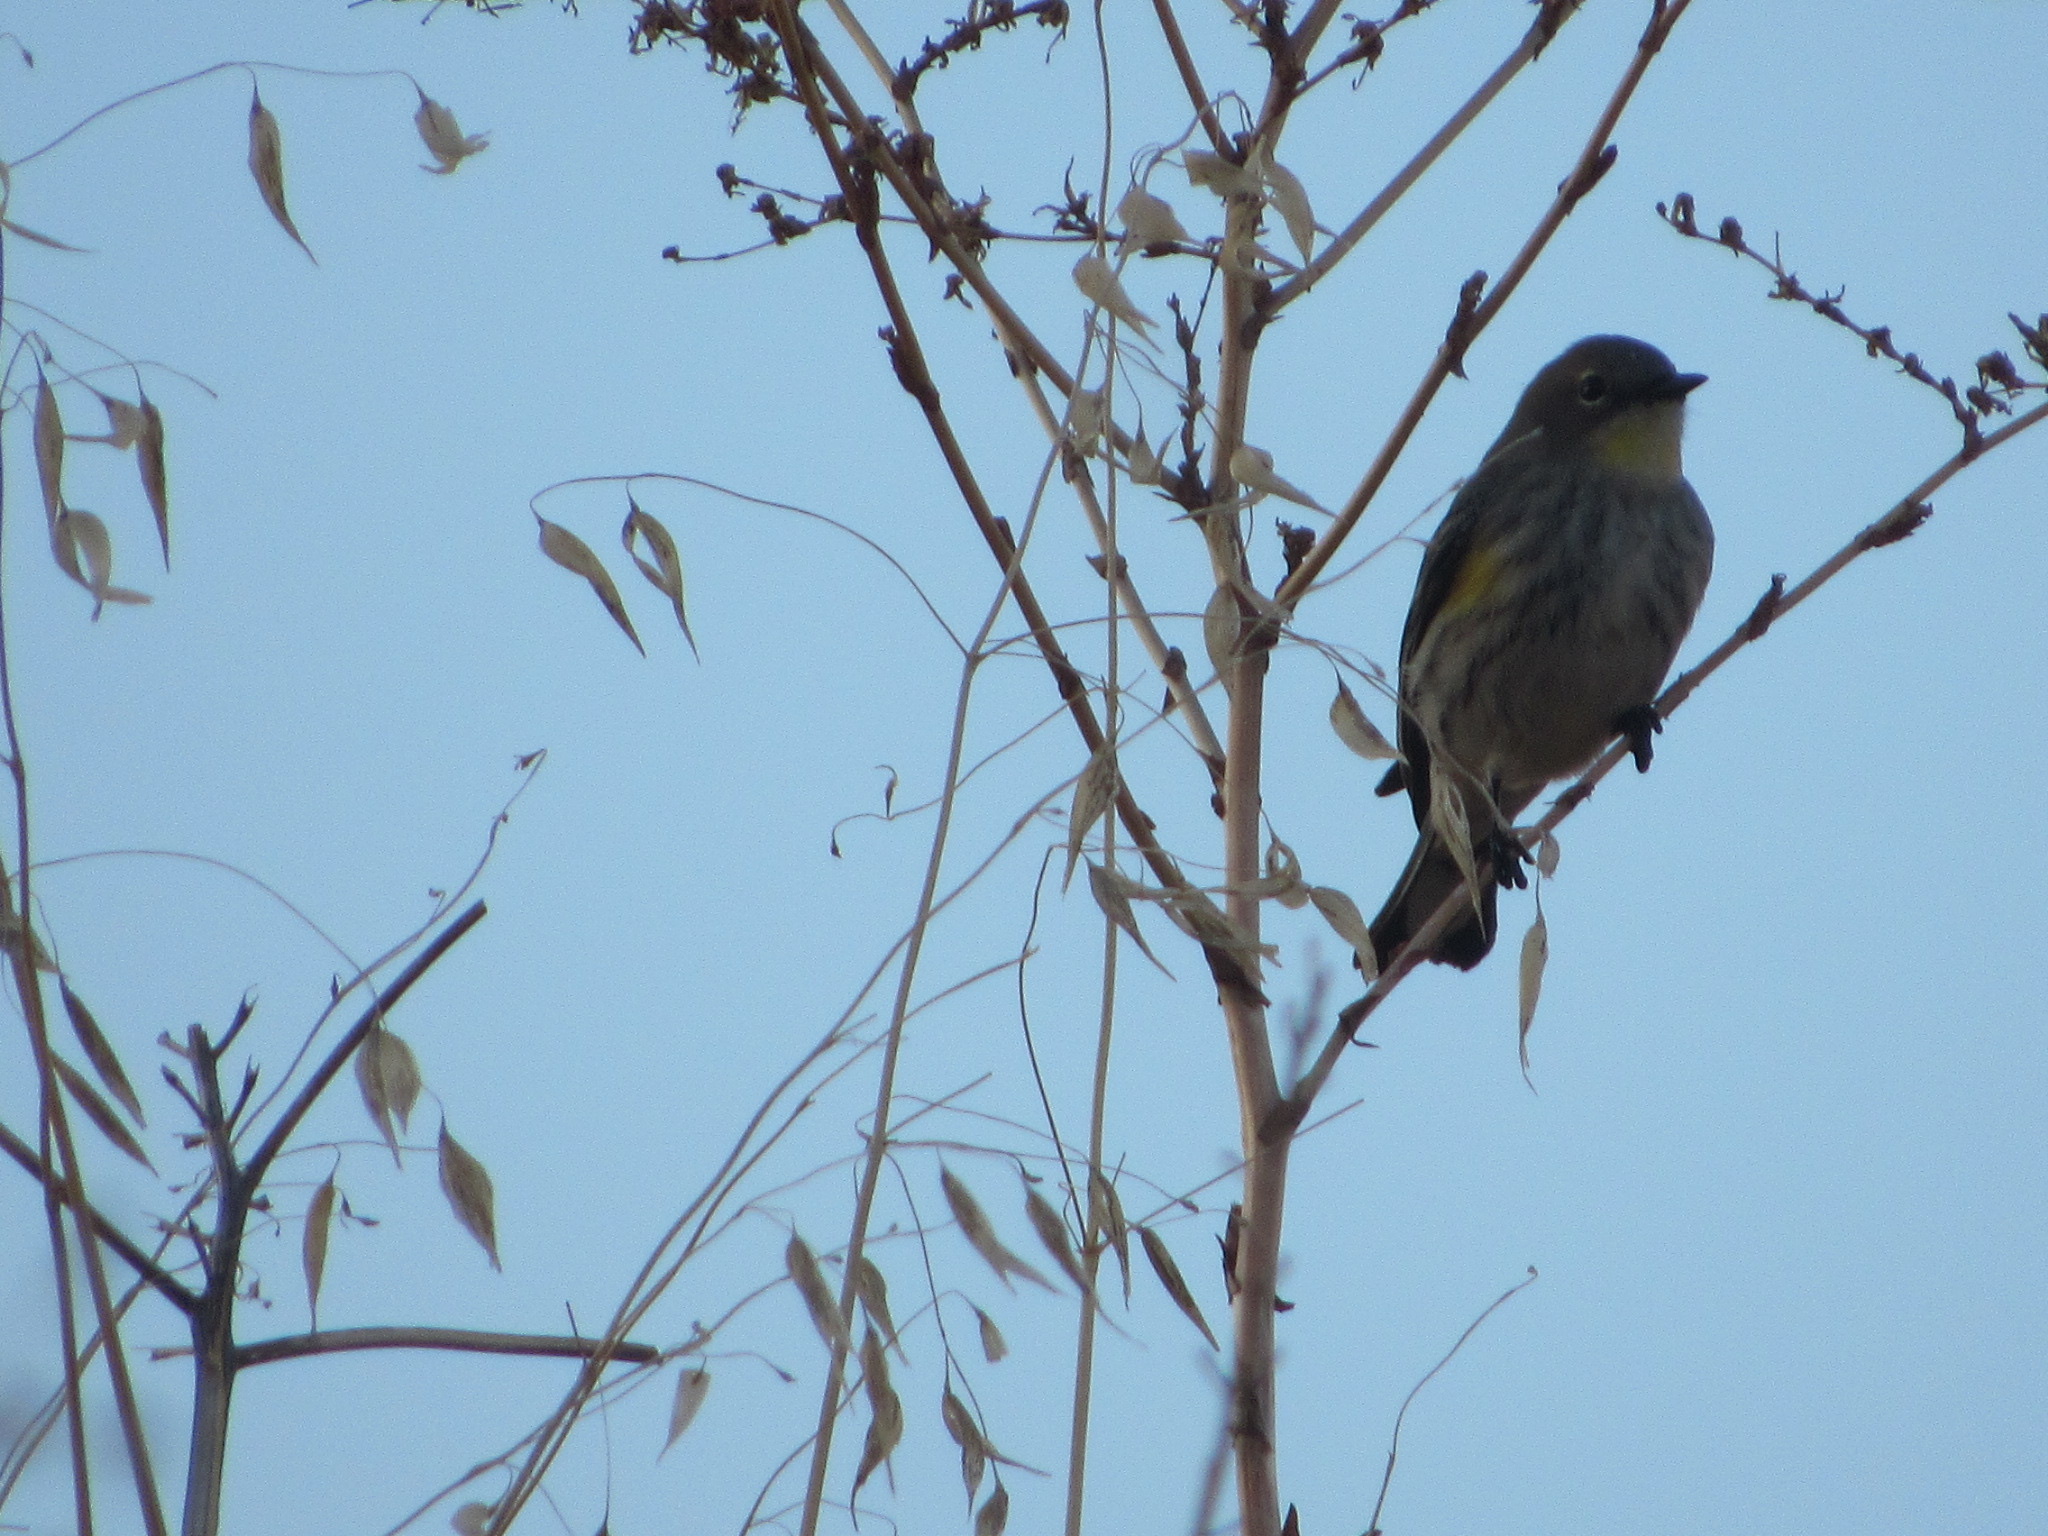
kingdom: Animalia
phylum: Chordata
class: Aves
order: Passeriformes
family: Parulidae
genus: Setophaga
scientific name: Setophaga coronata
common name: Myrtle warbler
